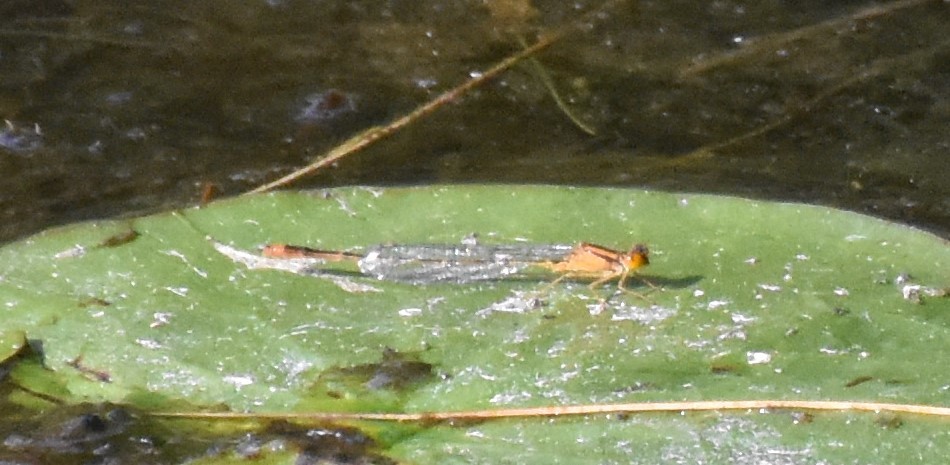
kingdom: Animalia
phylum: Arthropoda
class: Insecta
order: Odonata
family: Coenagrionidae
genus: Enallagma
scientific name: Enallagma signatum
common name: Orange bluet
